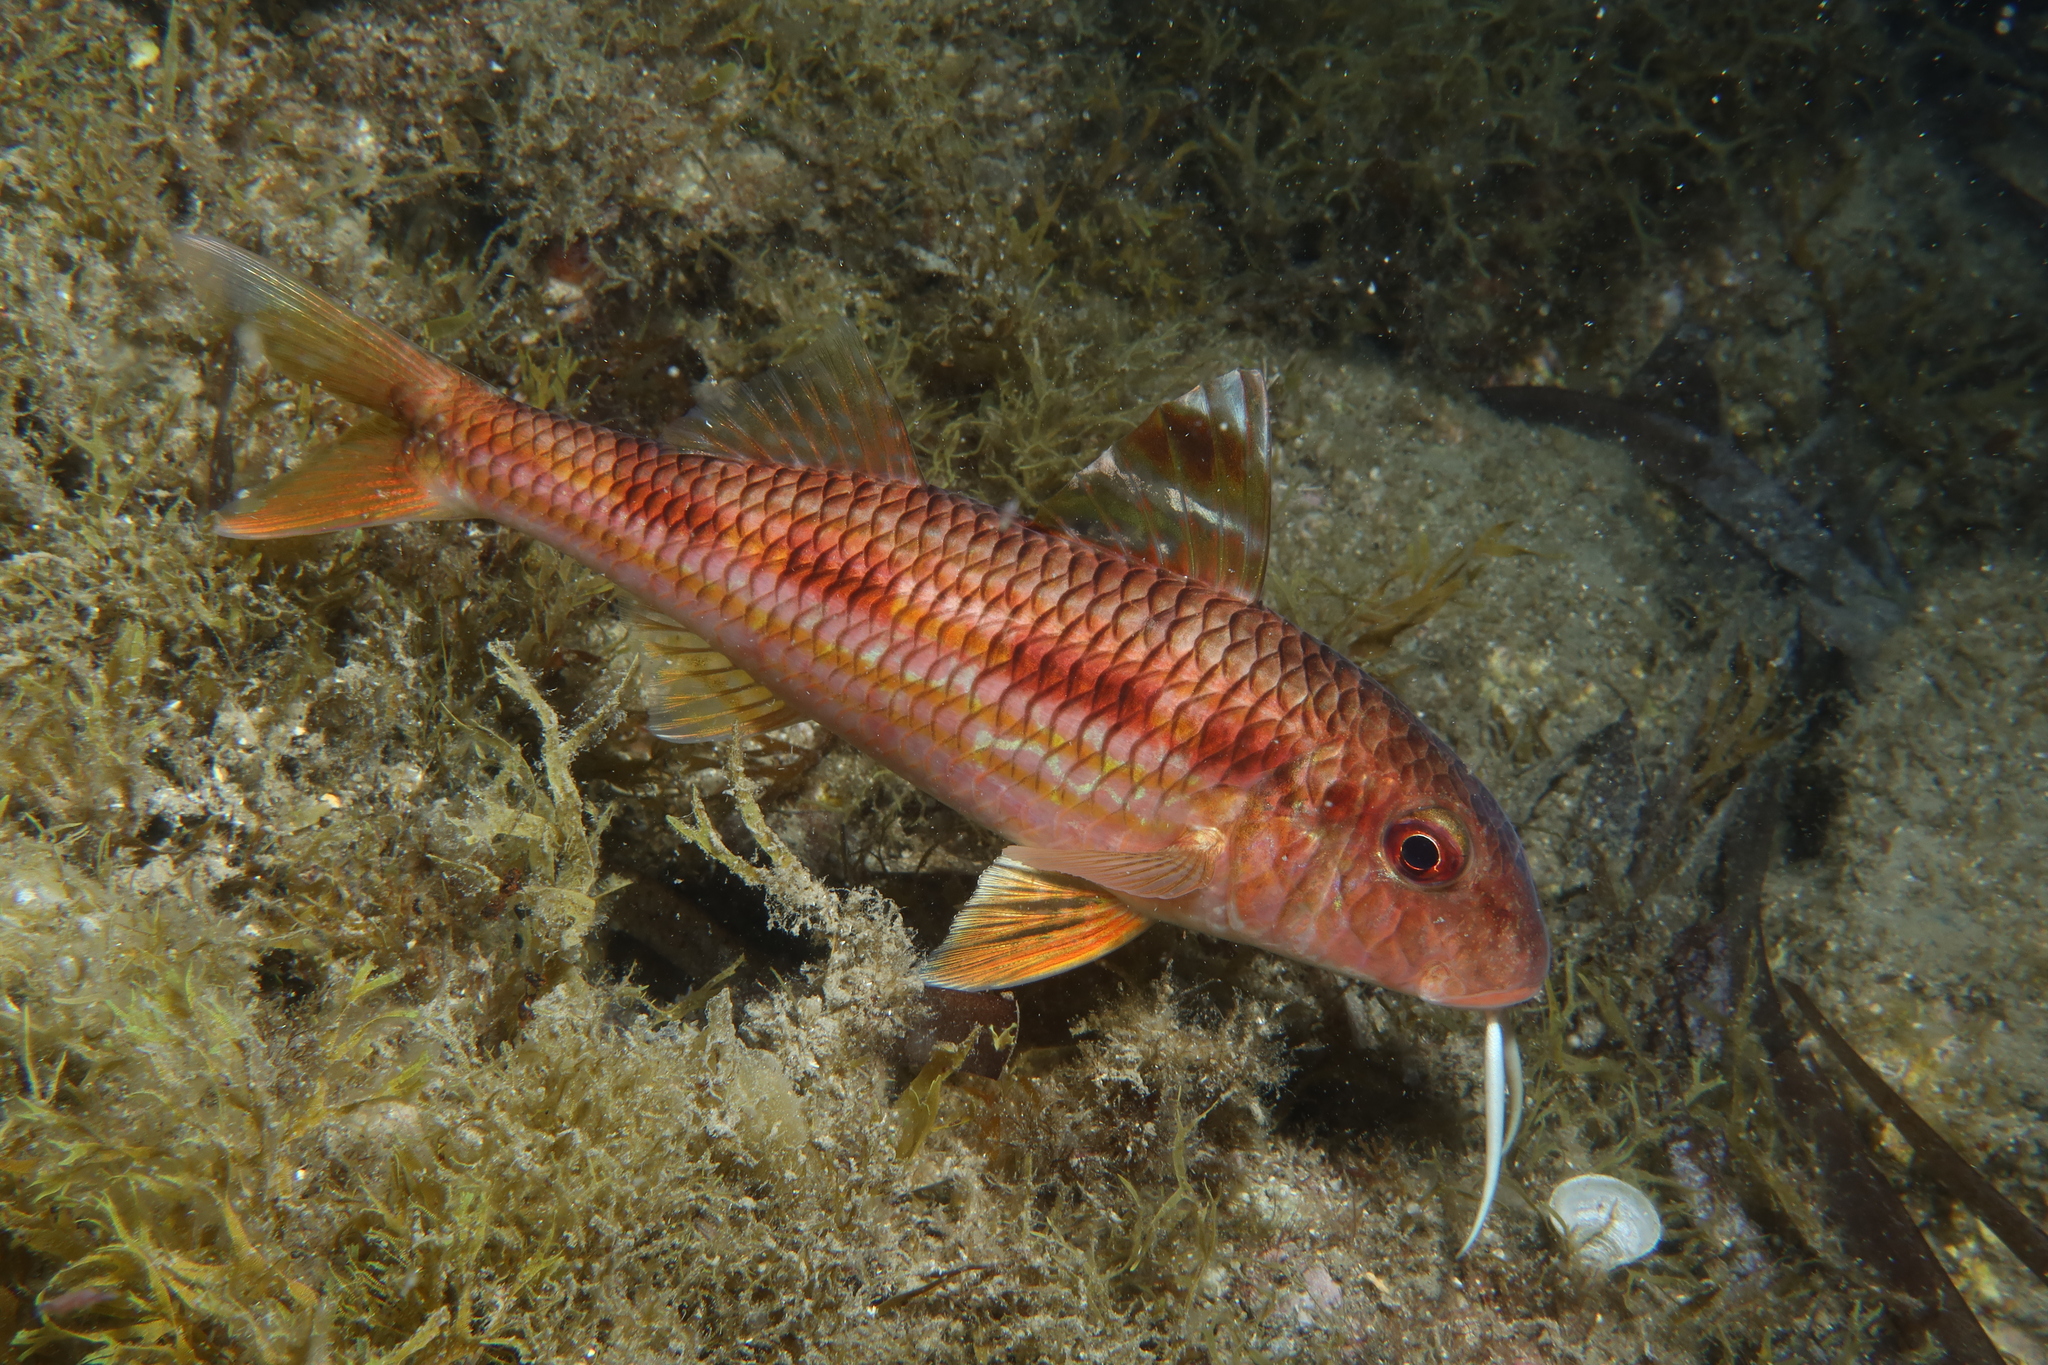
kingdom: Animalia
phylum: Chordata
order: Perciformes
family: Mullidae
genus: Mullus
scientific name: Mullus surmuletus
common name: Red mullet
